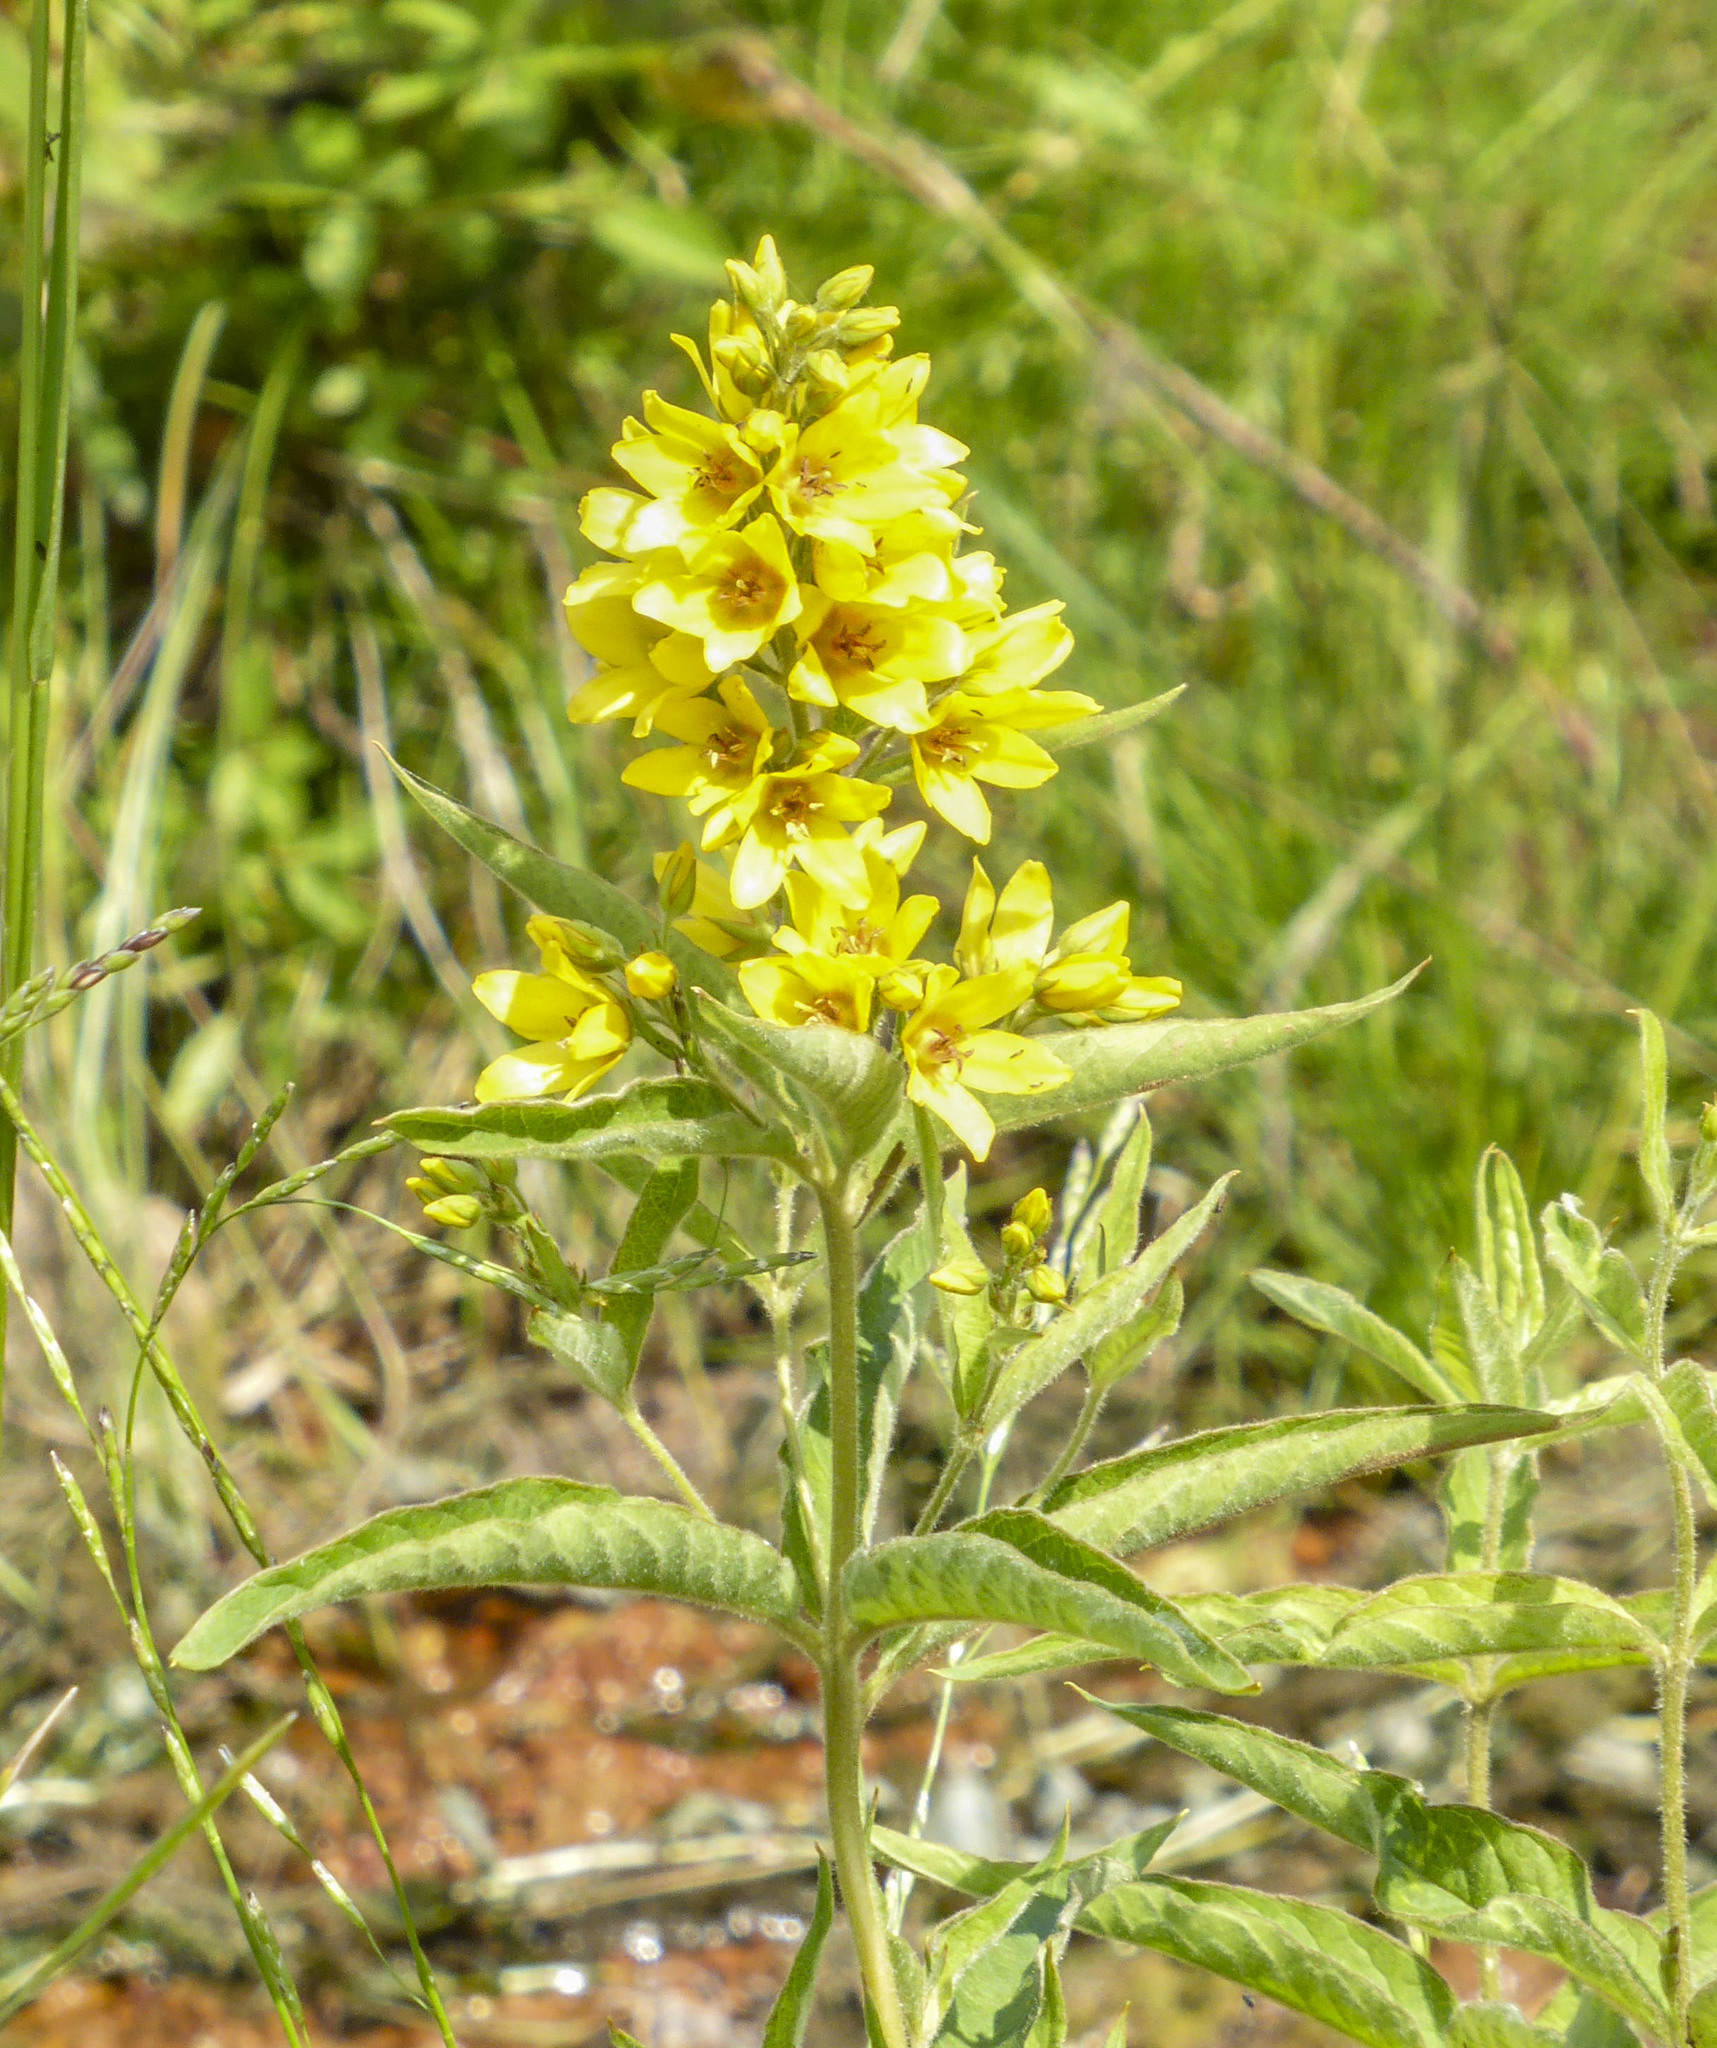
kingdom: Plantae
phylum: Tracheophyta
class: Magnoliopsida
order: Ericales
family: Primulaceae
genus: Lysimachia
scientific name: Lysimachia vulgaris
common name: Yellow loosestrife
